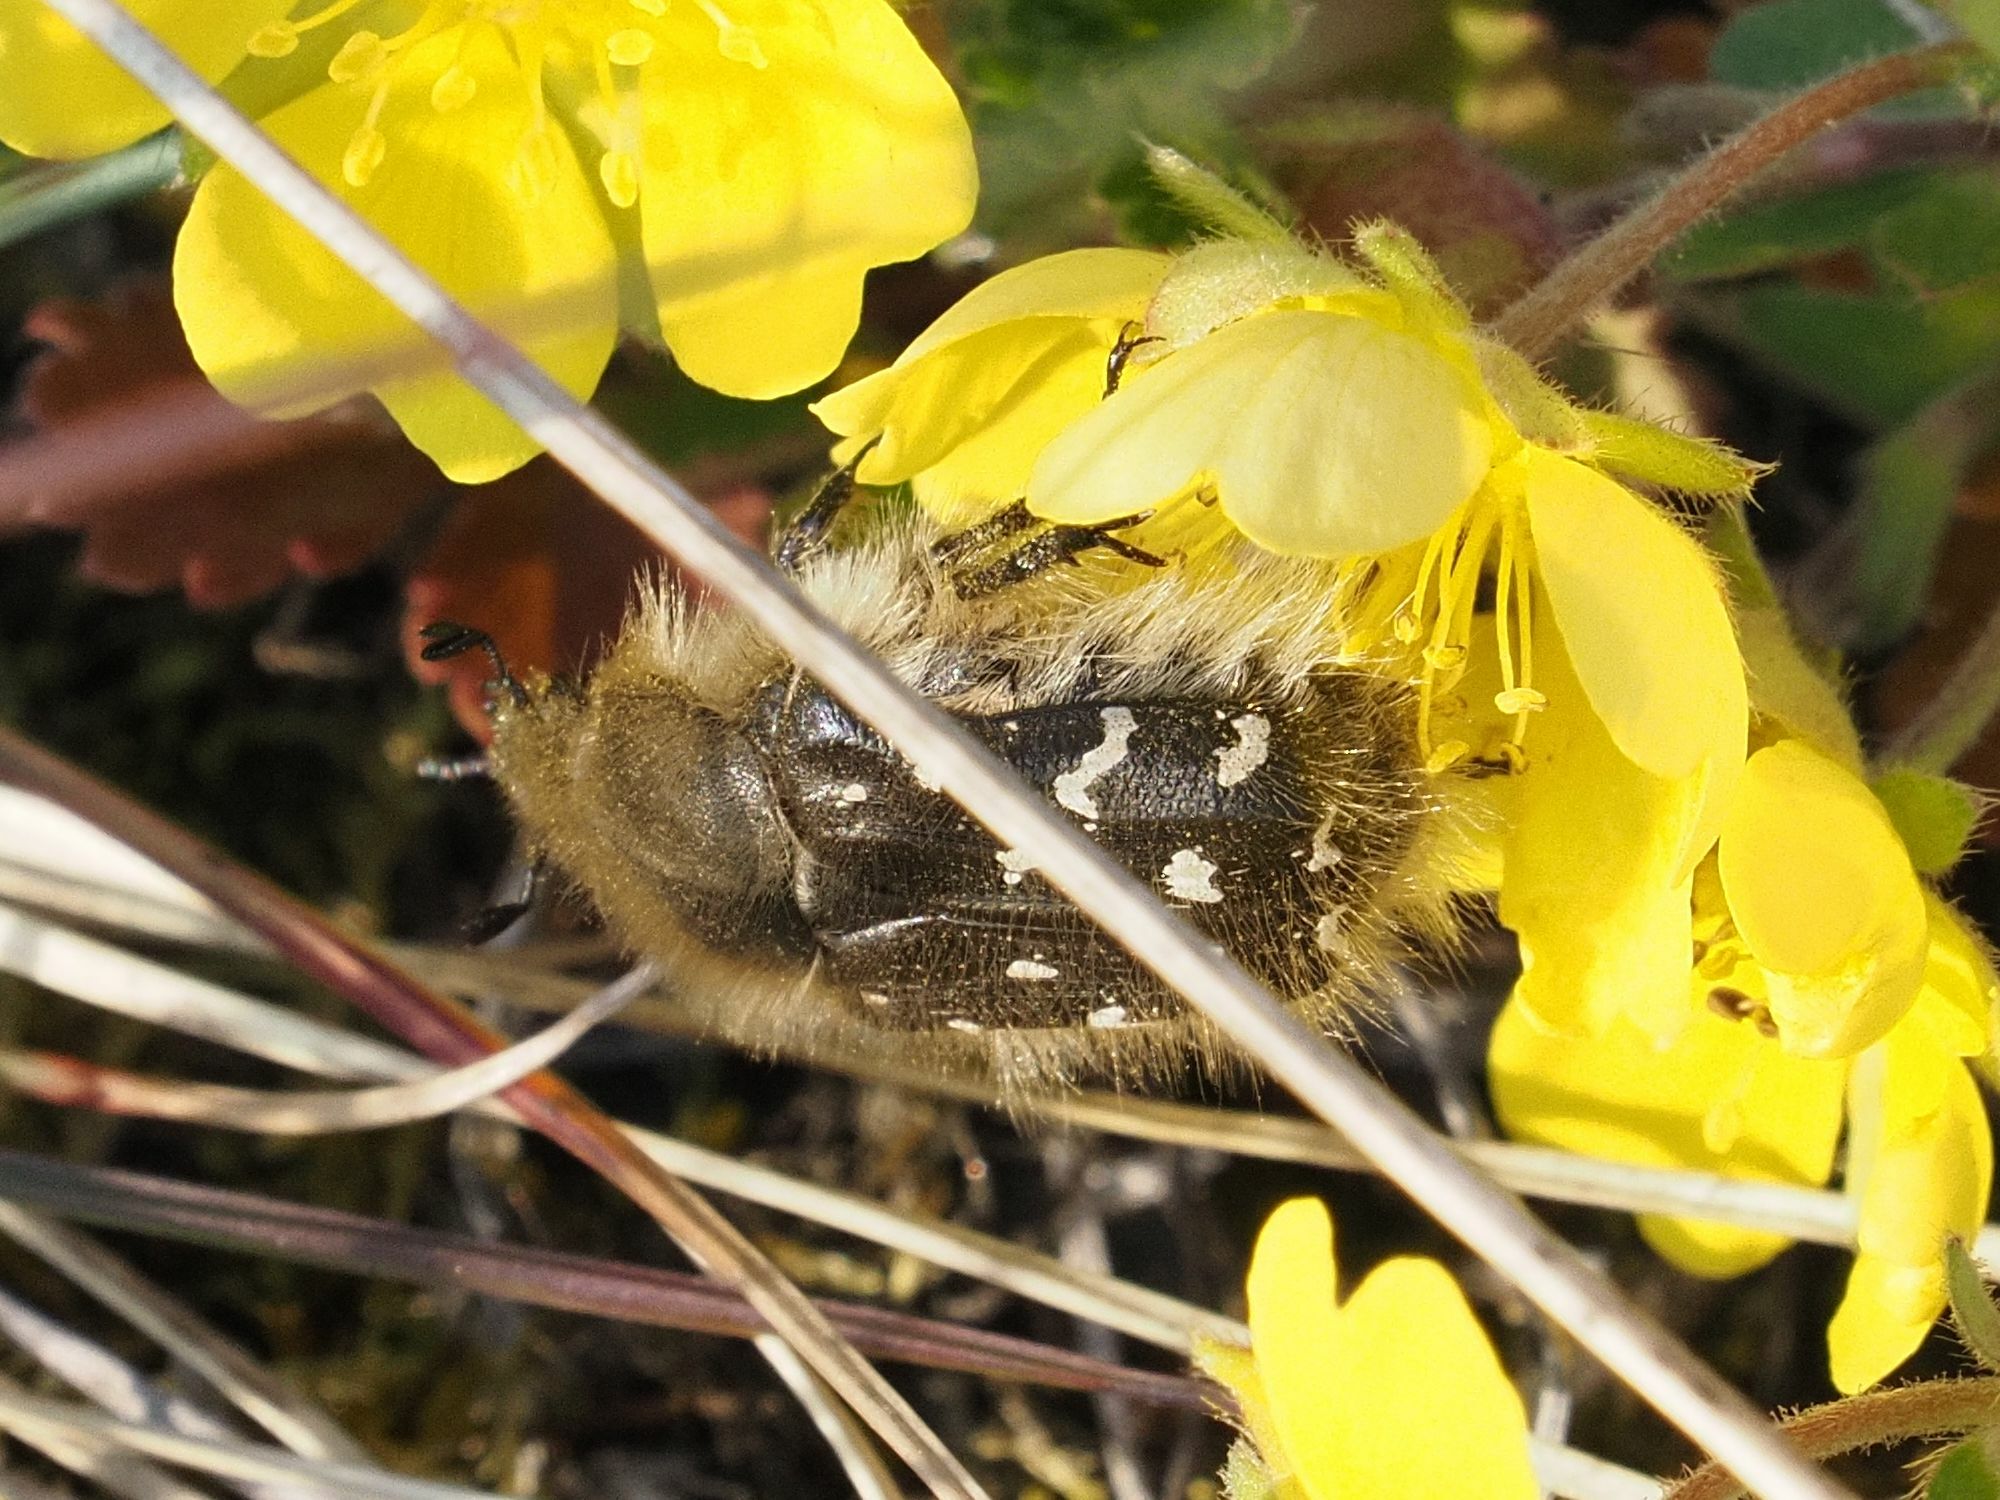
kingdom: Animalia
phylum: Arthropoda
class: Insecta
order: Coleoptera
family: Scarabaeidae
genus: Tropinota
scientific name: Tropinota hirta
